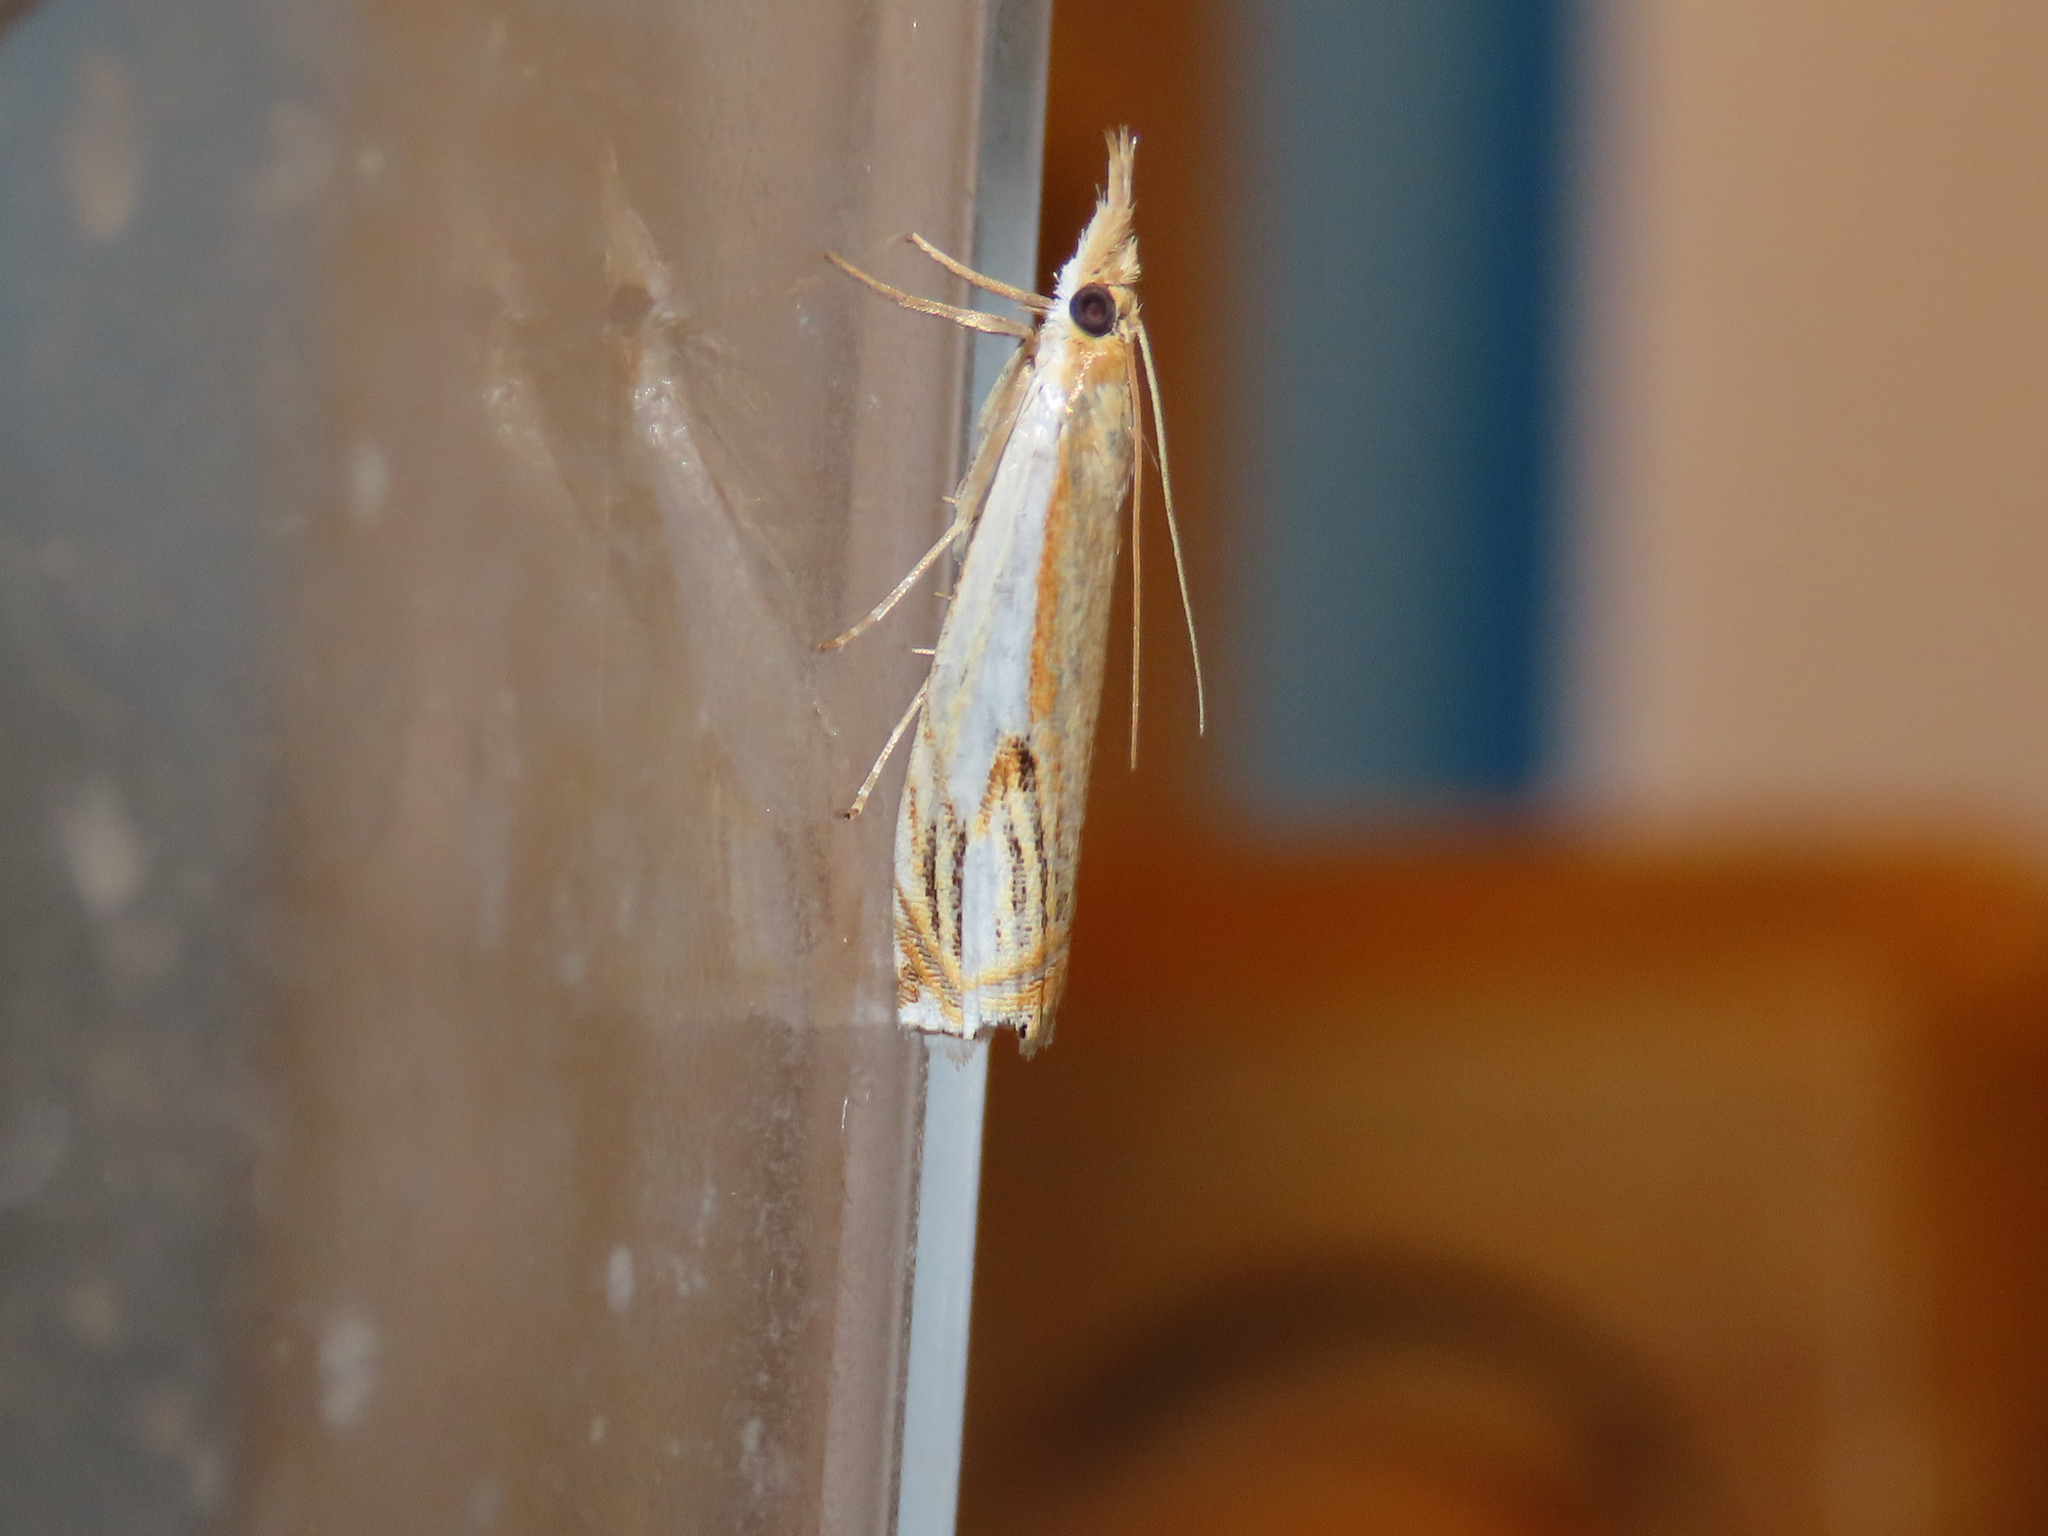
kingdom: Animalia
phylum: Arthropoda
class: Insecta
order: Lepidoptera
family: Crambidae
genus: Crambus
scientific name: Crambus agitatellus
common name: Double-banded grass-veneer
